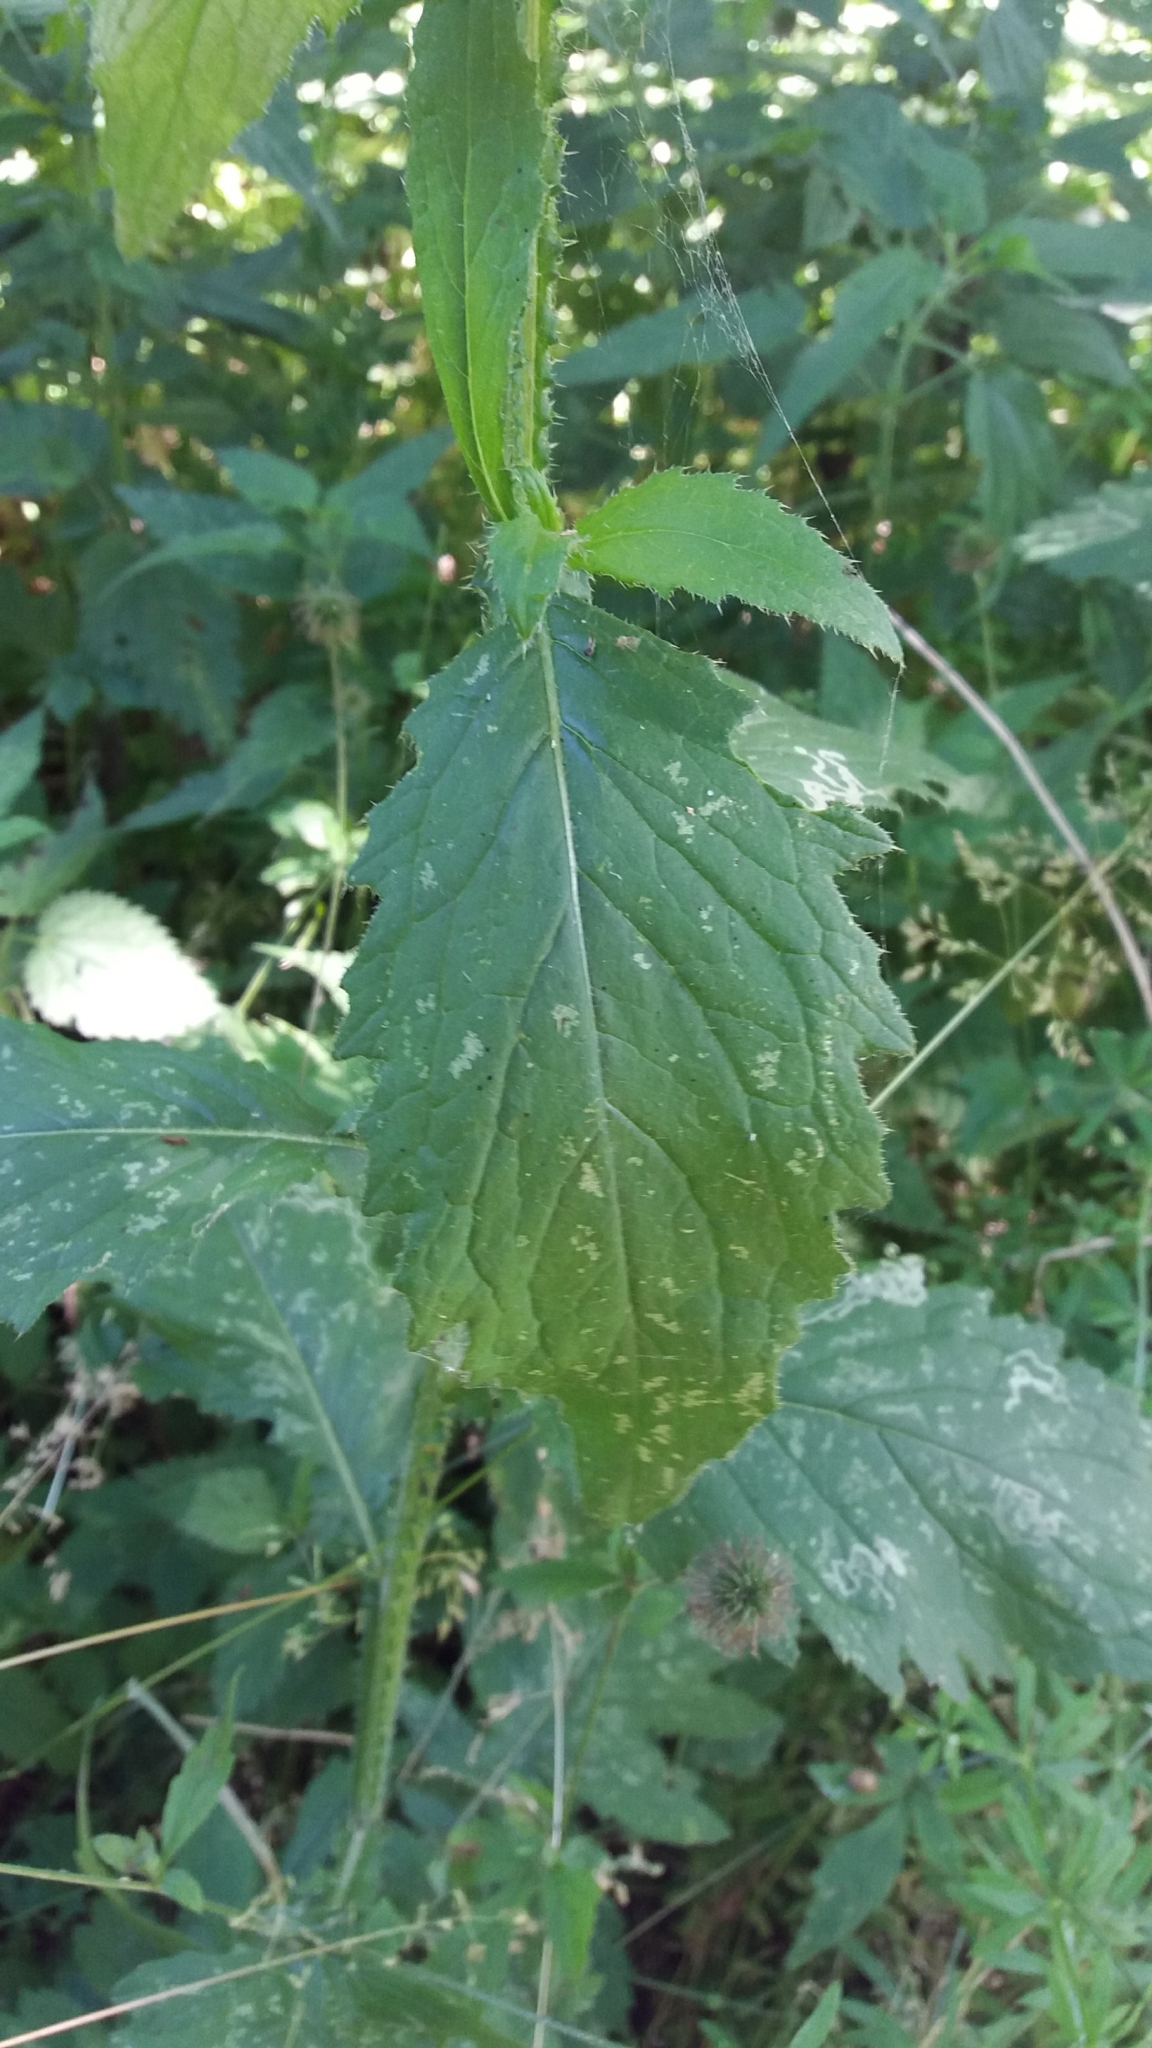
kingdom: Plantae
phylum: Tracheophyta
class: Magnoliopsida
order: Asterales
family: Asteraceae
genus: Carduus
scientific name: Carduus crispus
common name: Welted thistle
